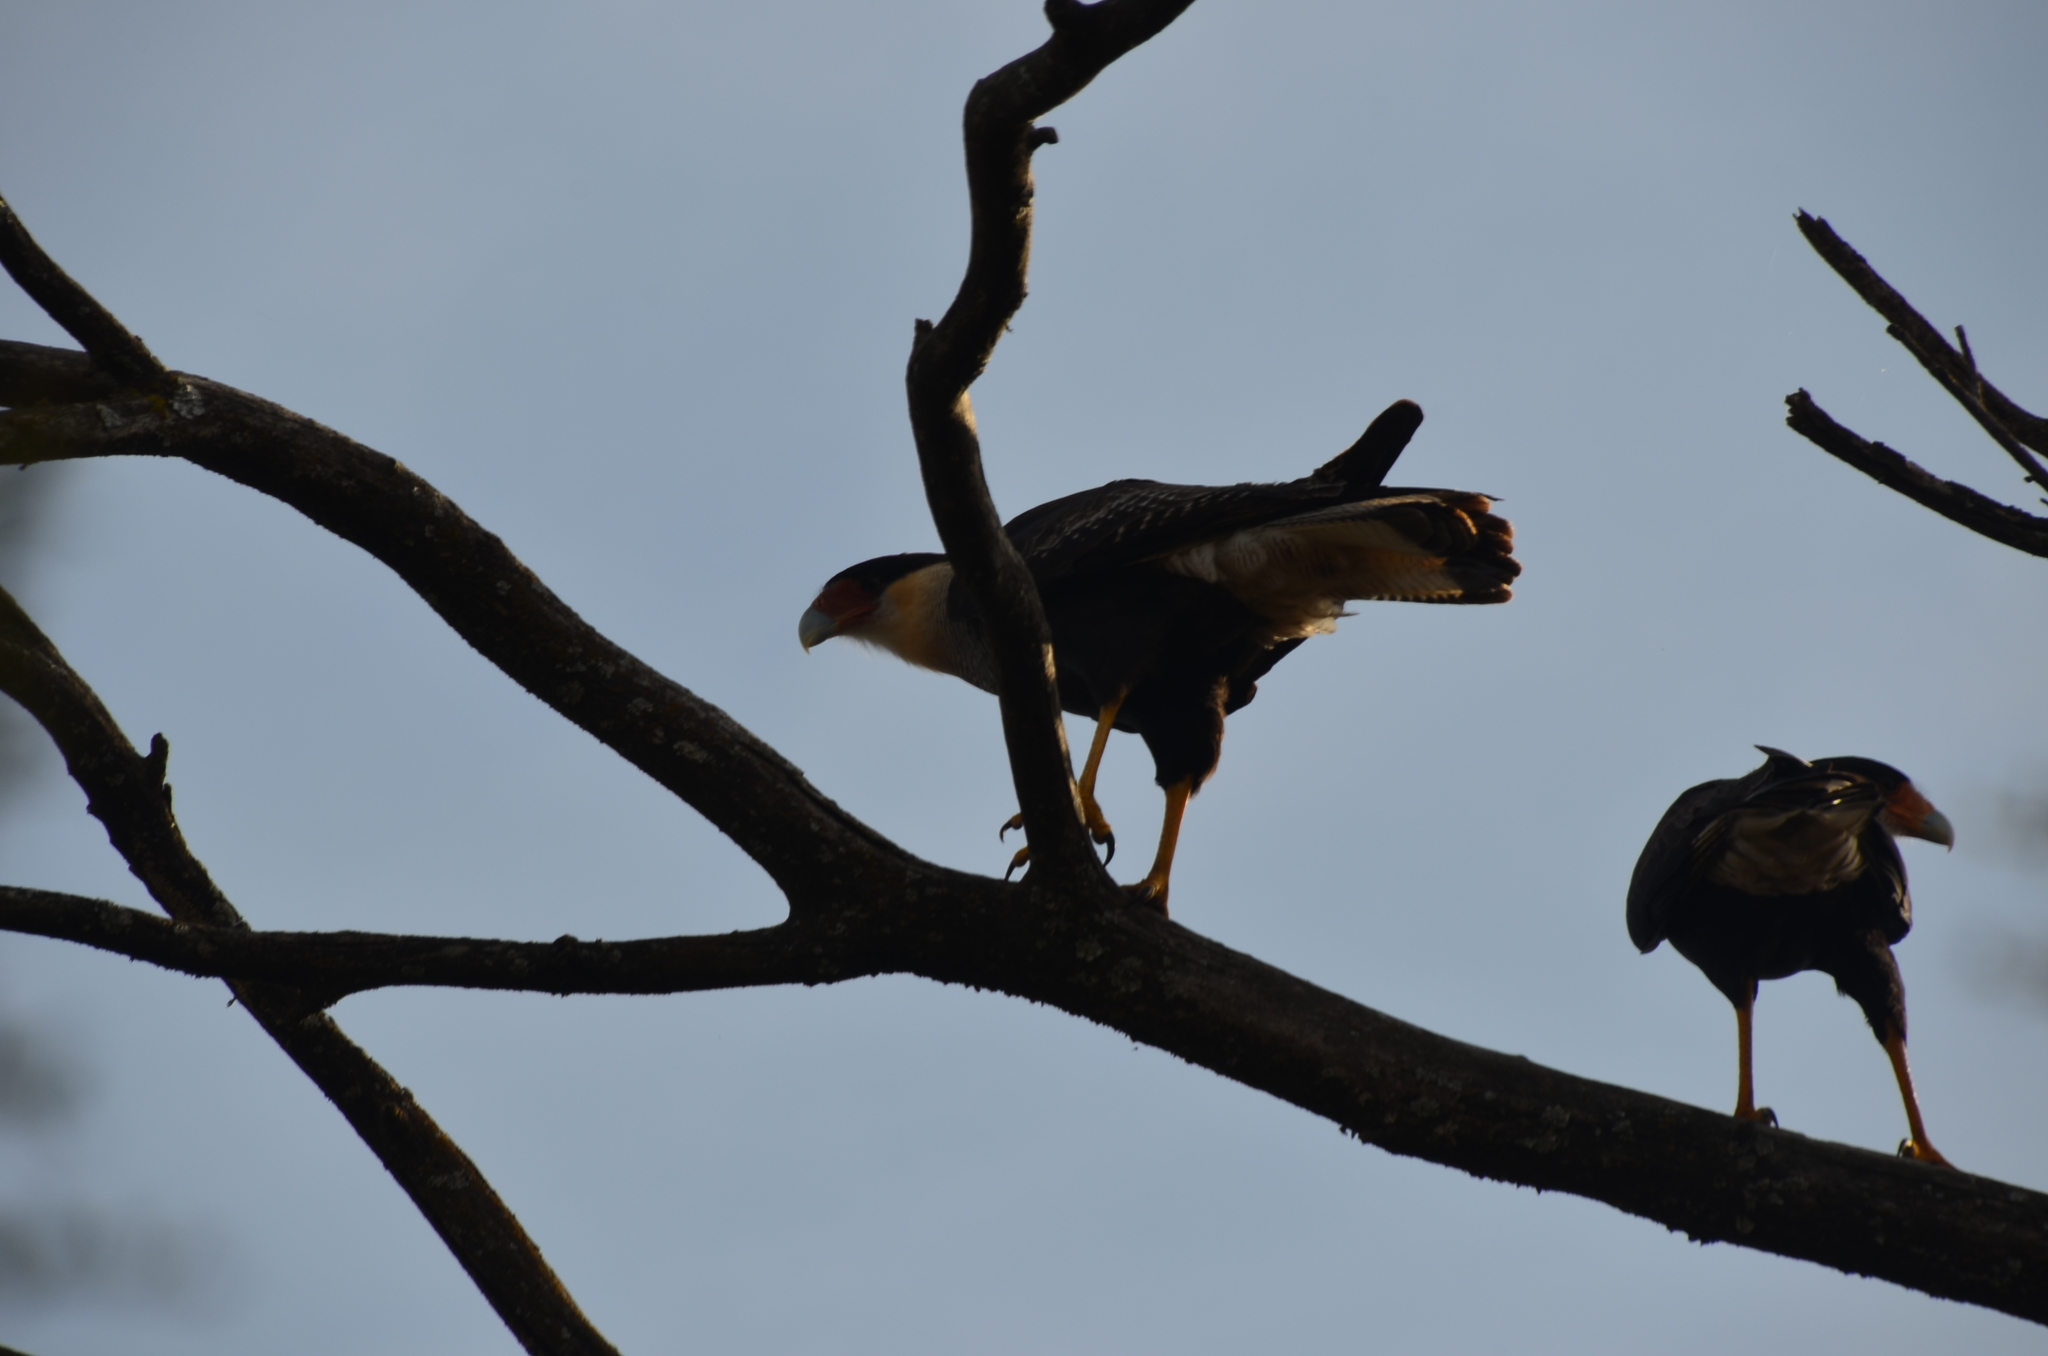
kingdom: Animalia
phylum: Chordata
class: Aves
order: Falconiformes
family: Falconidae
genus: Caracara
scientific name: Caracara plancus
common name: Southern caracara
